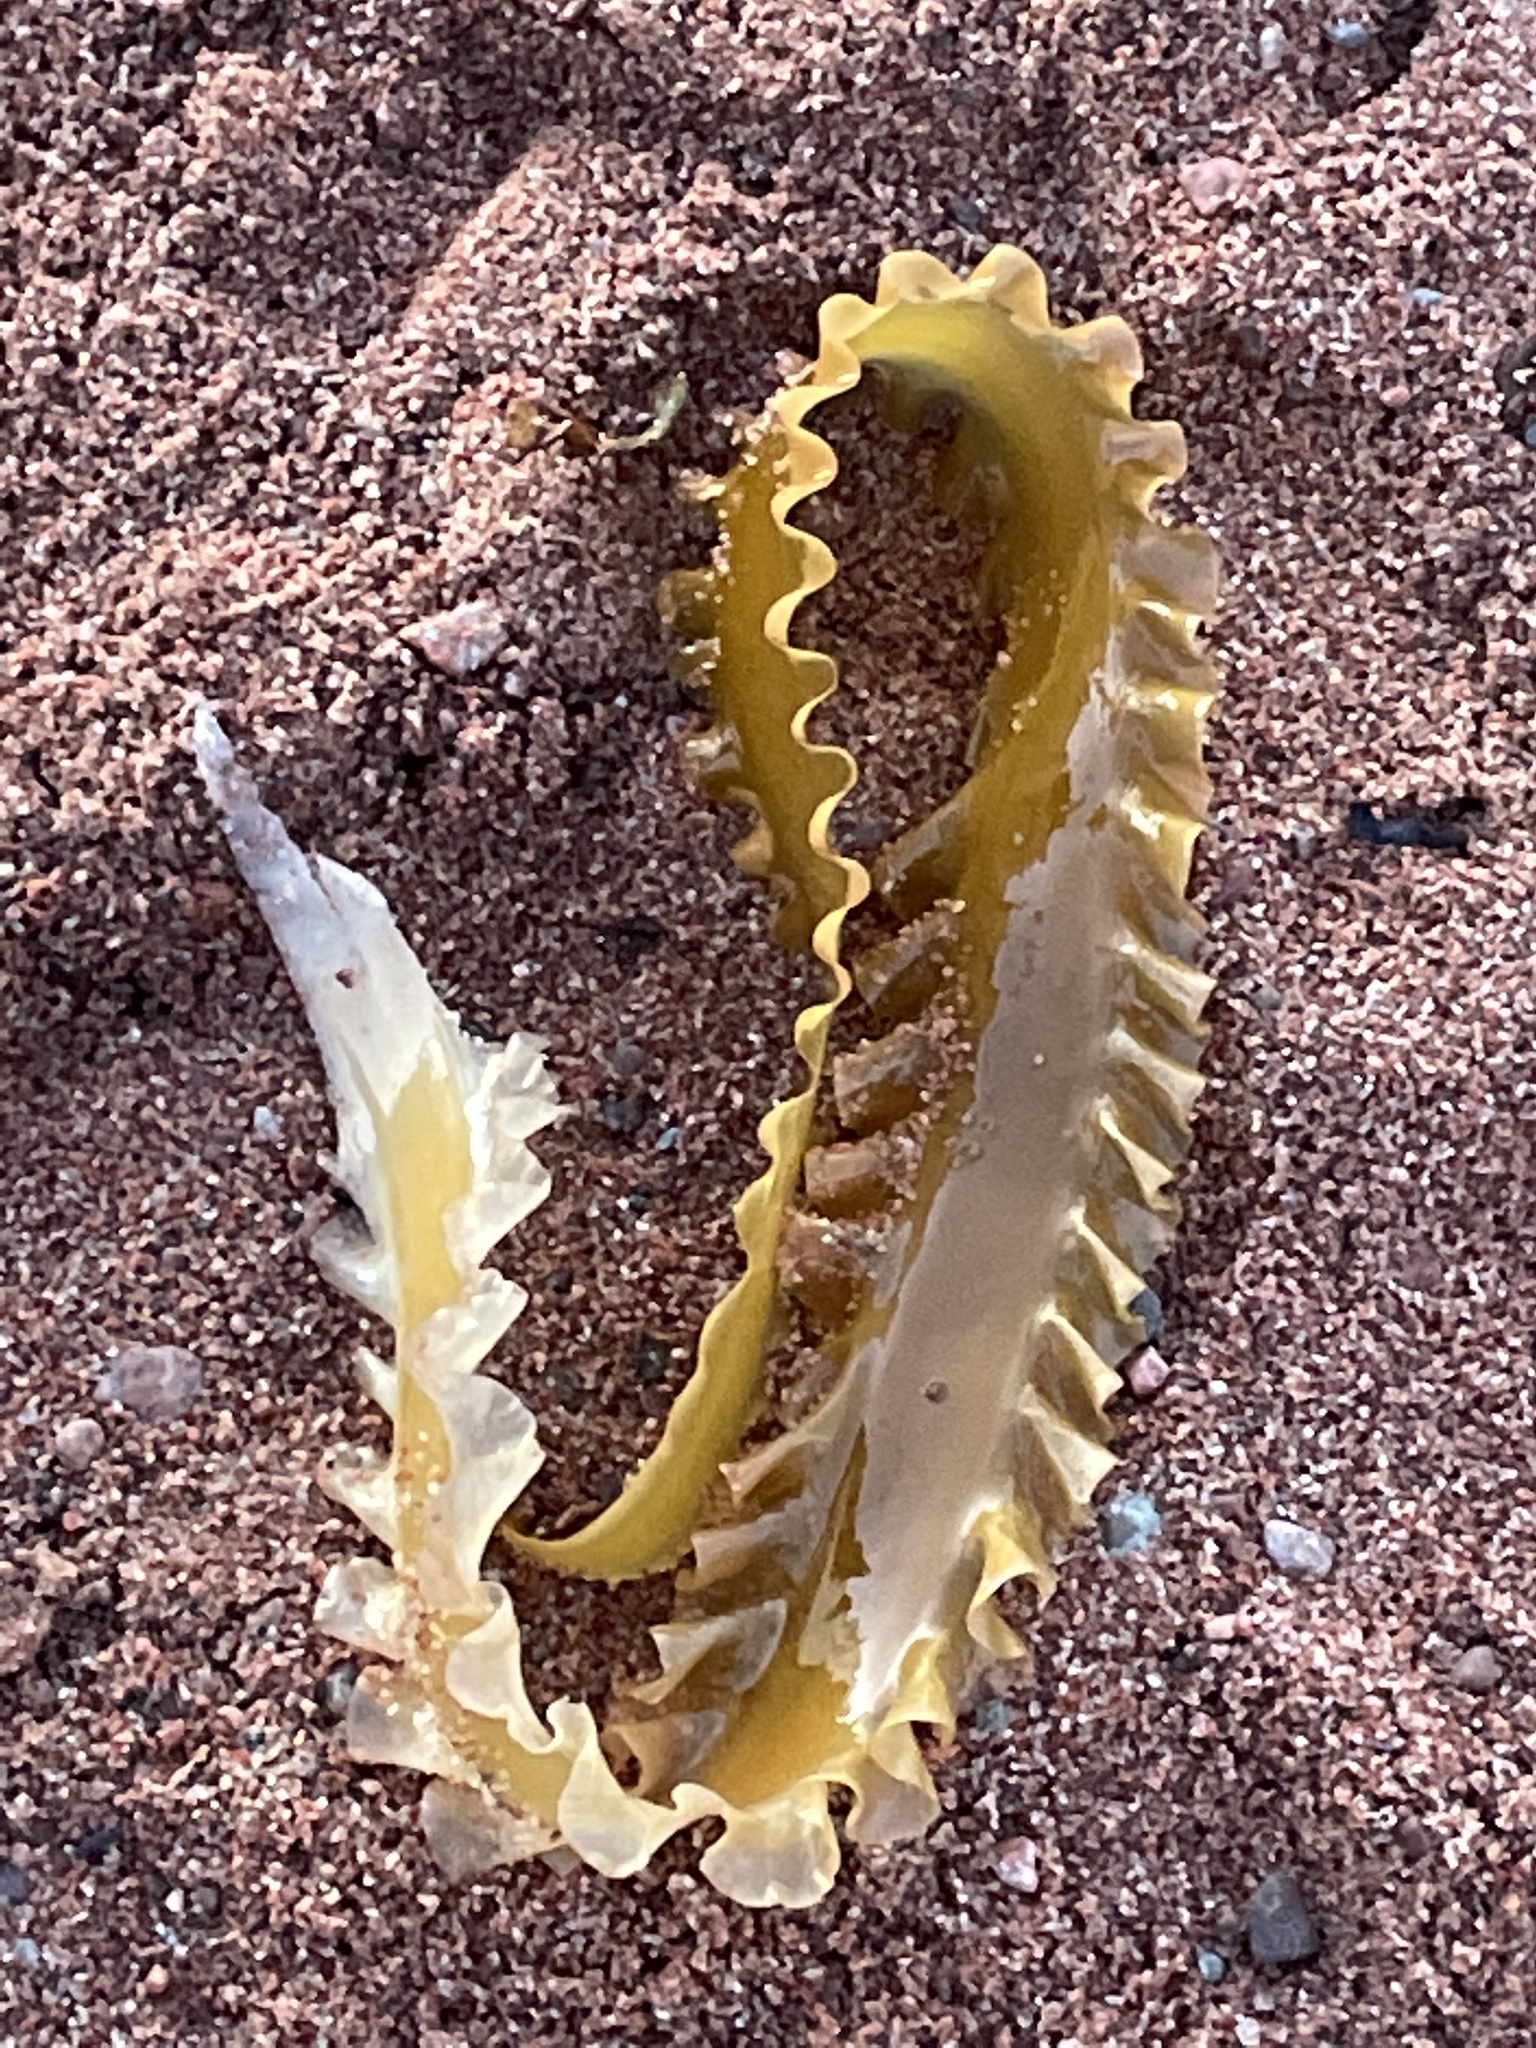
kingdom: Chromista
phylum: Ochrophyta
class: Phaeophyceae
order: Laminariales
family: Laminariaceae
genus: Saccharina
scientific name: Saccharina latissima
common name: Poor man's weather glass
